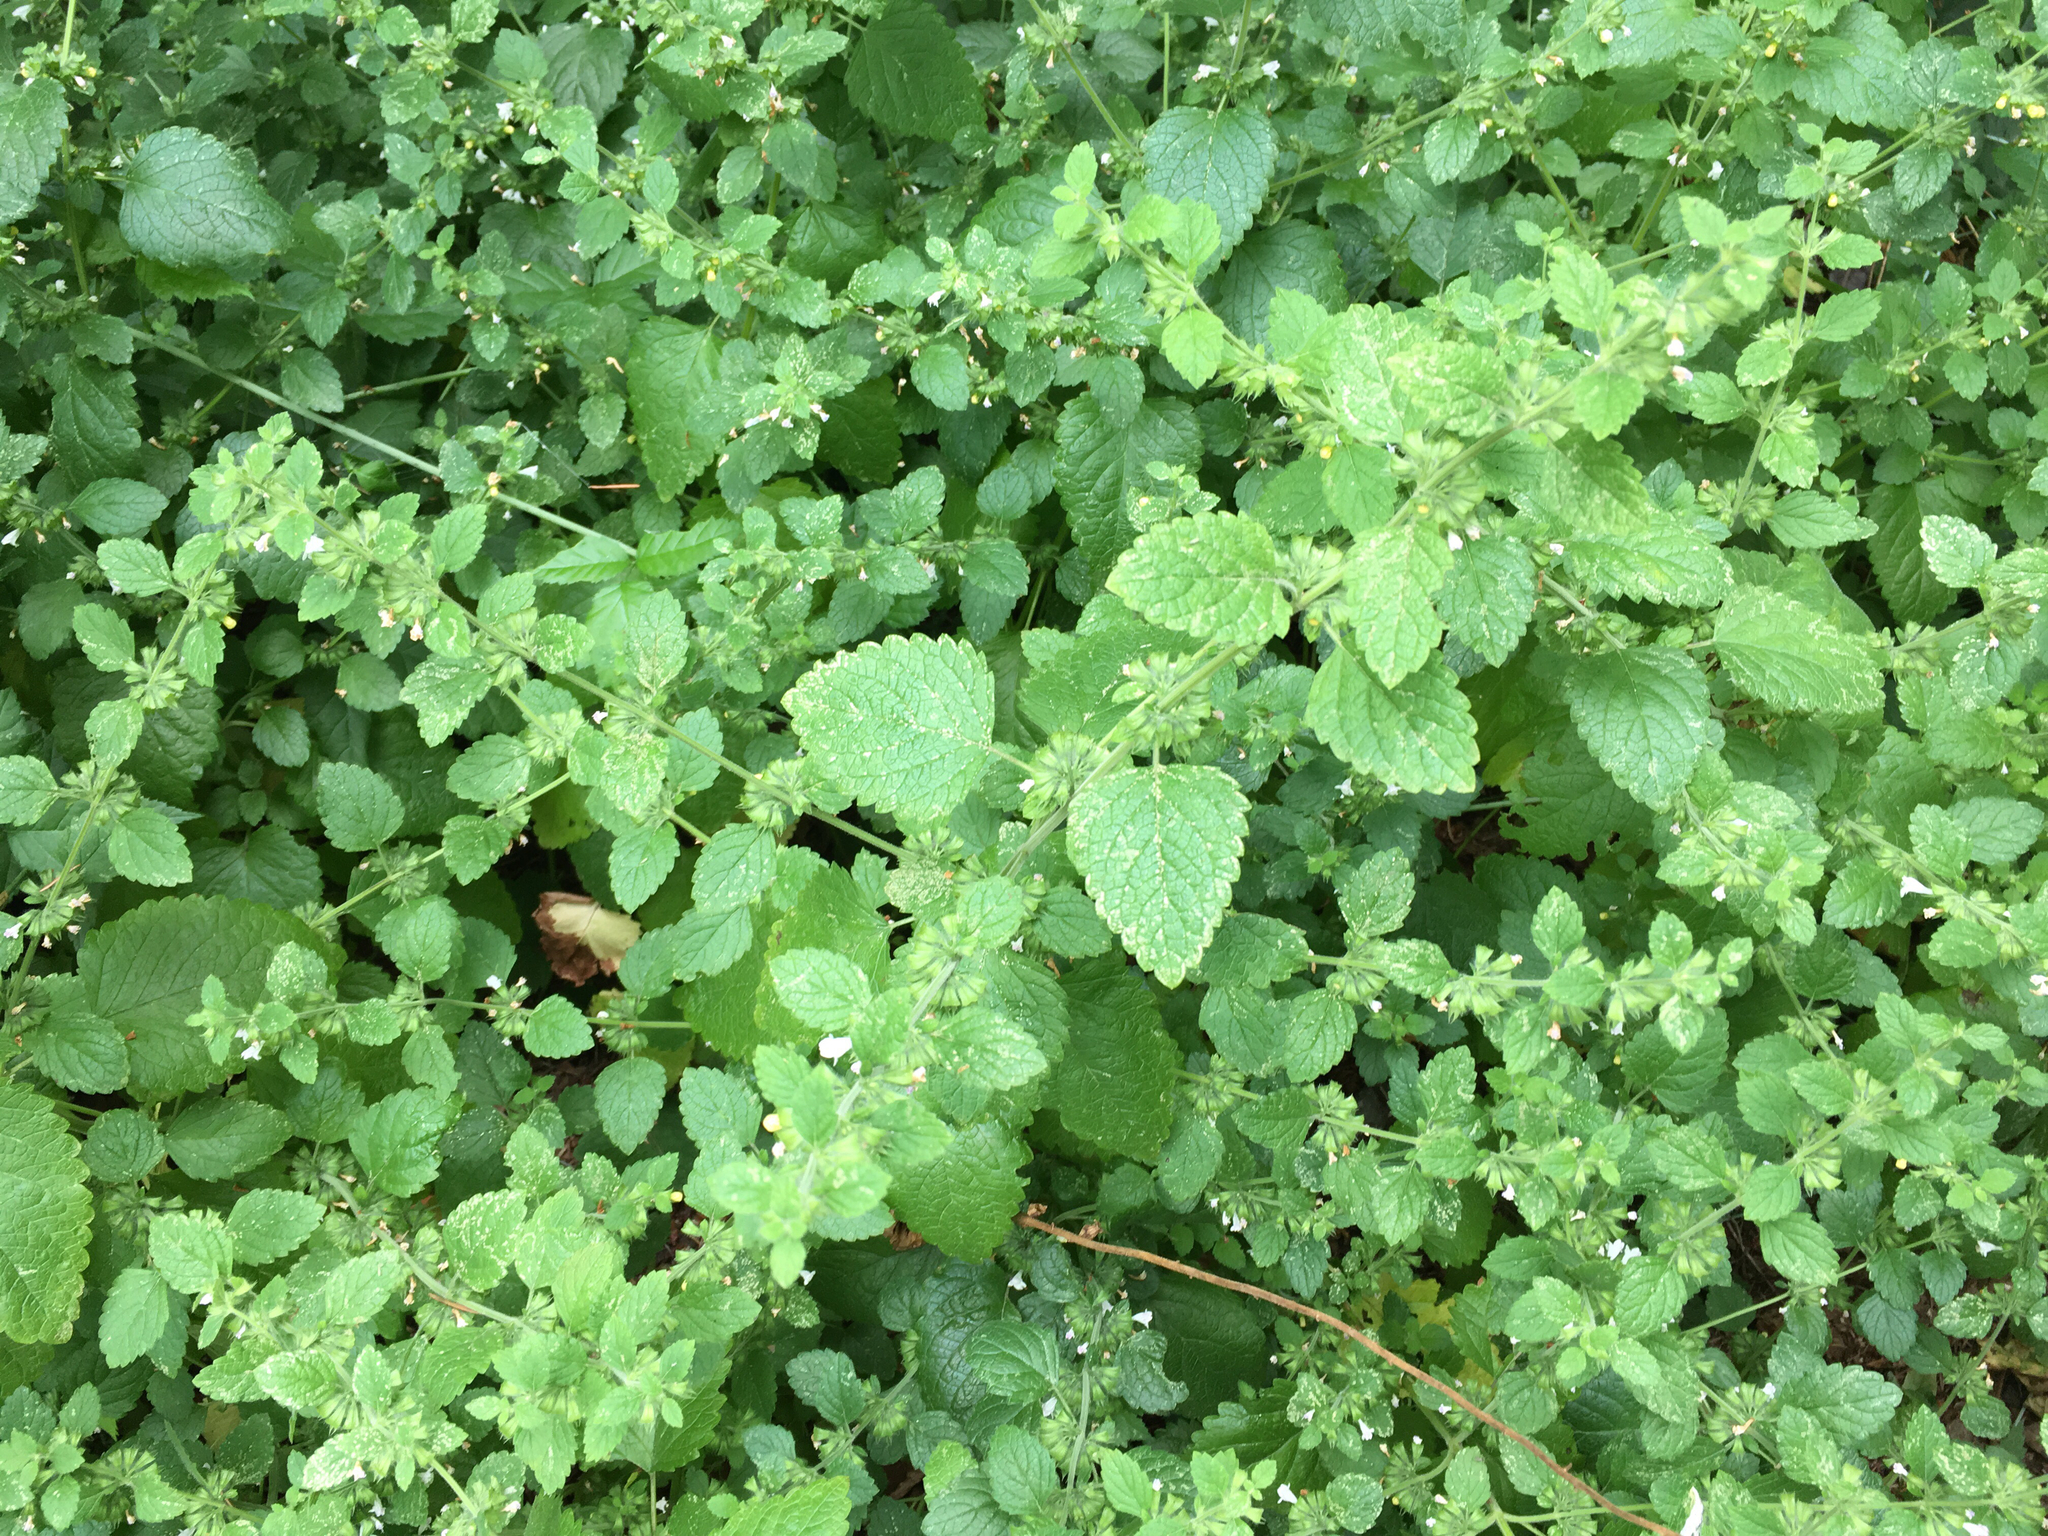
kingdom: Plantae
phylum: Tracheophyta
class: Magnoliopsida
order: Lamiales
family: Lamiaceae
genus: Melissa
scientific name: Melissa officinalis
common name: Balm
